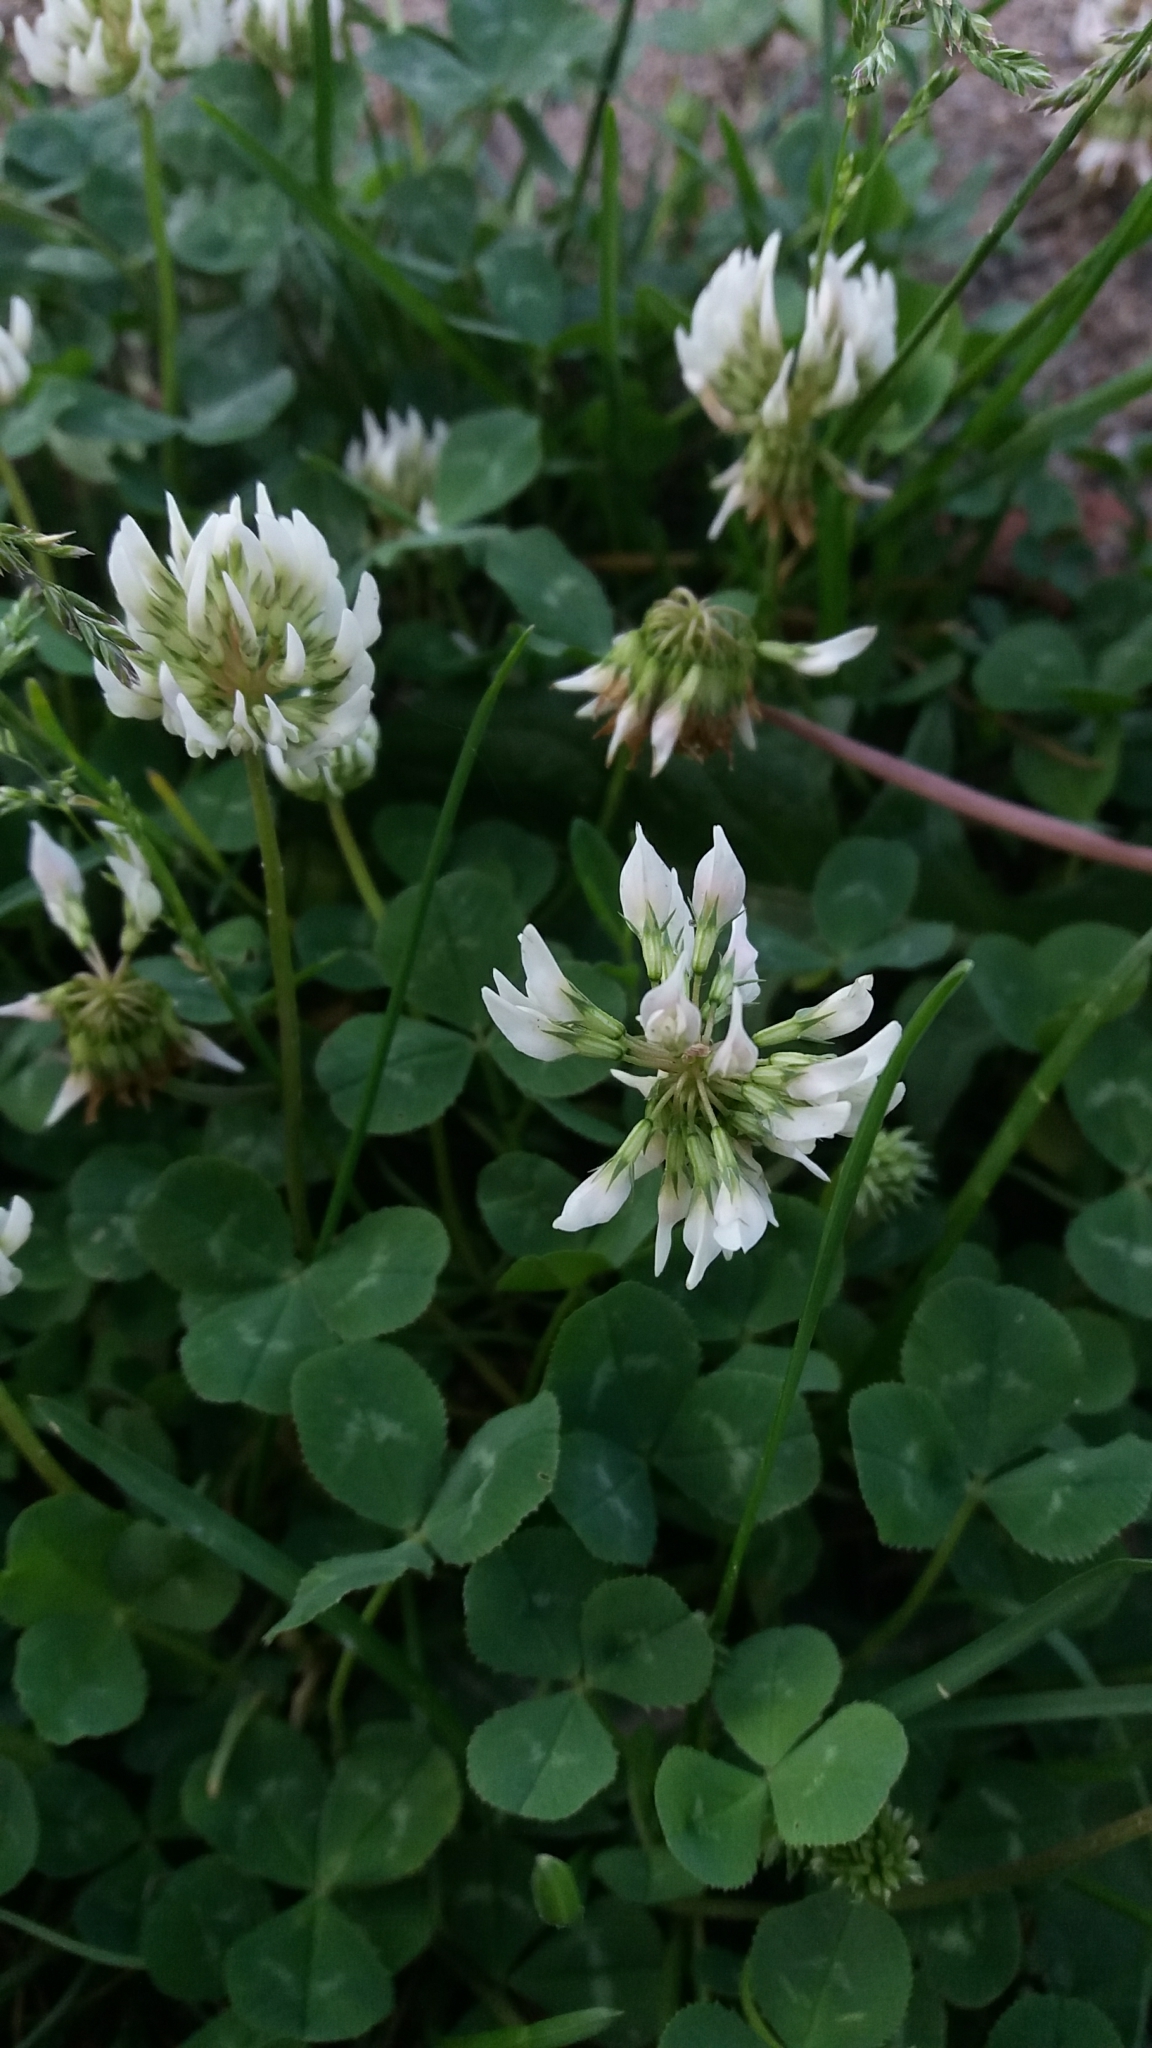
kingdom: Plantae
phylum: Tracheophyta
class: Magnoliopsida
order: Fabales
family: Fabaceae
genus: Trifolium
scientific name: Trifolium repens
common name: White clover
